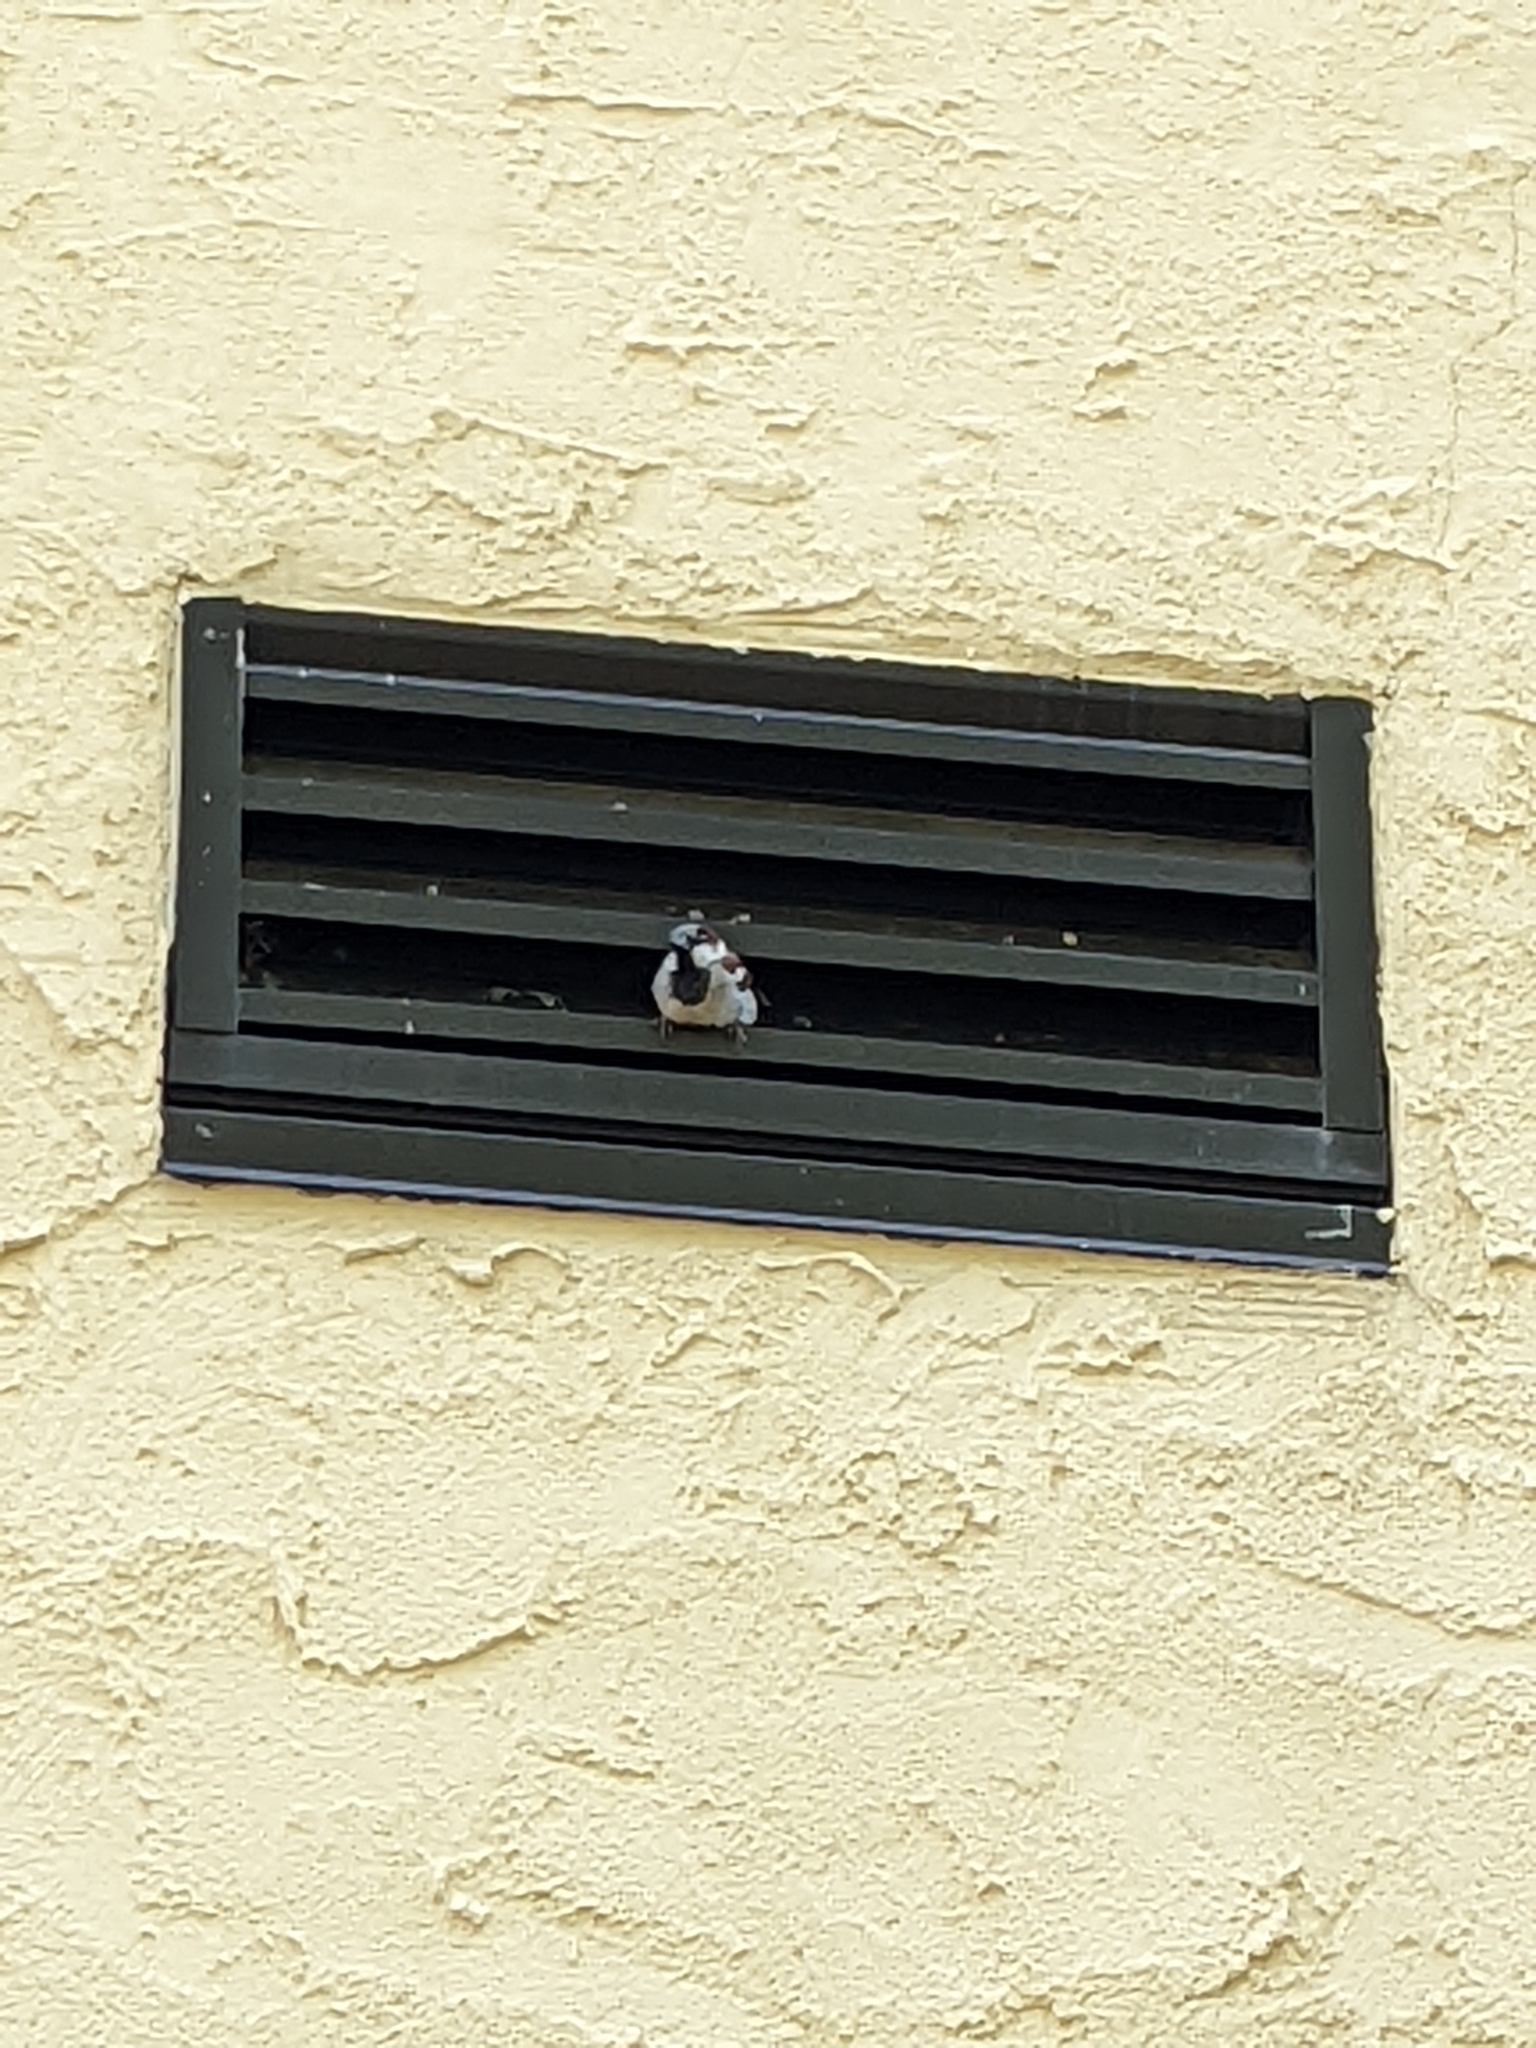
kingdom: Animalia
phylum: Chordata
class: Aves
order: Passeriformes
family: Passeridae
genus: Passer
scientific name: Passer domesticus
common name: House sparrow
